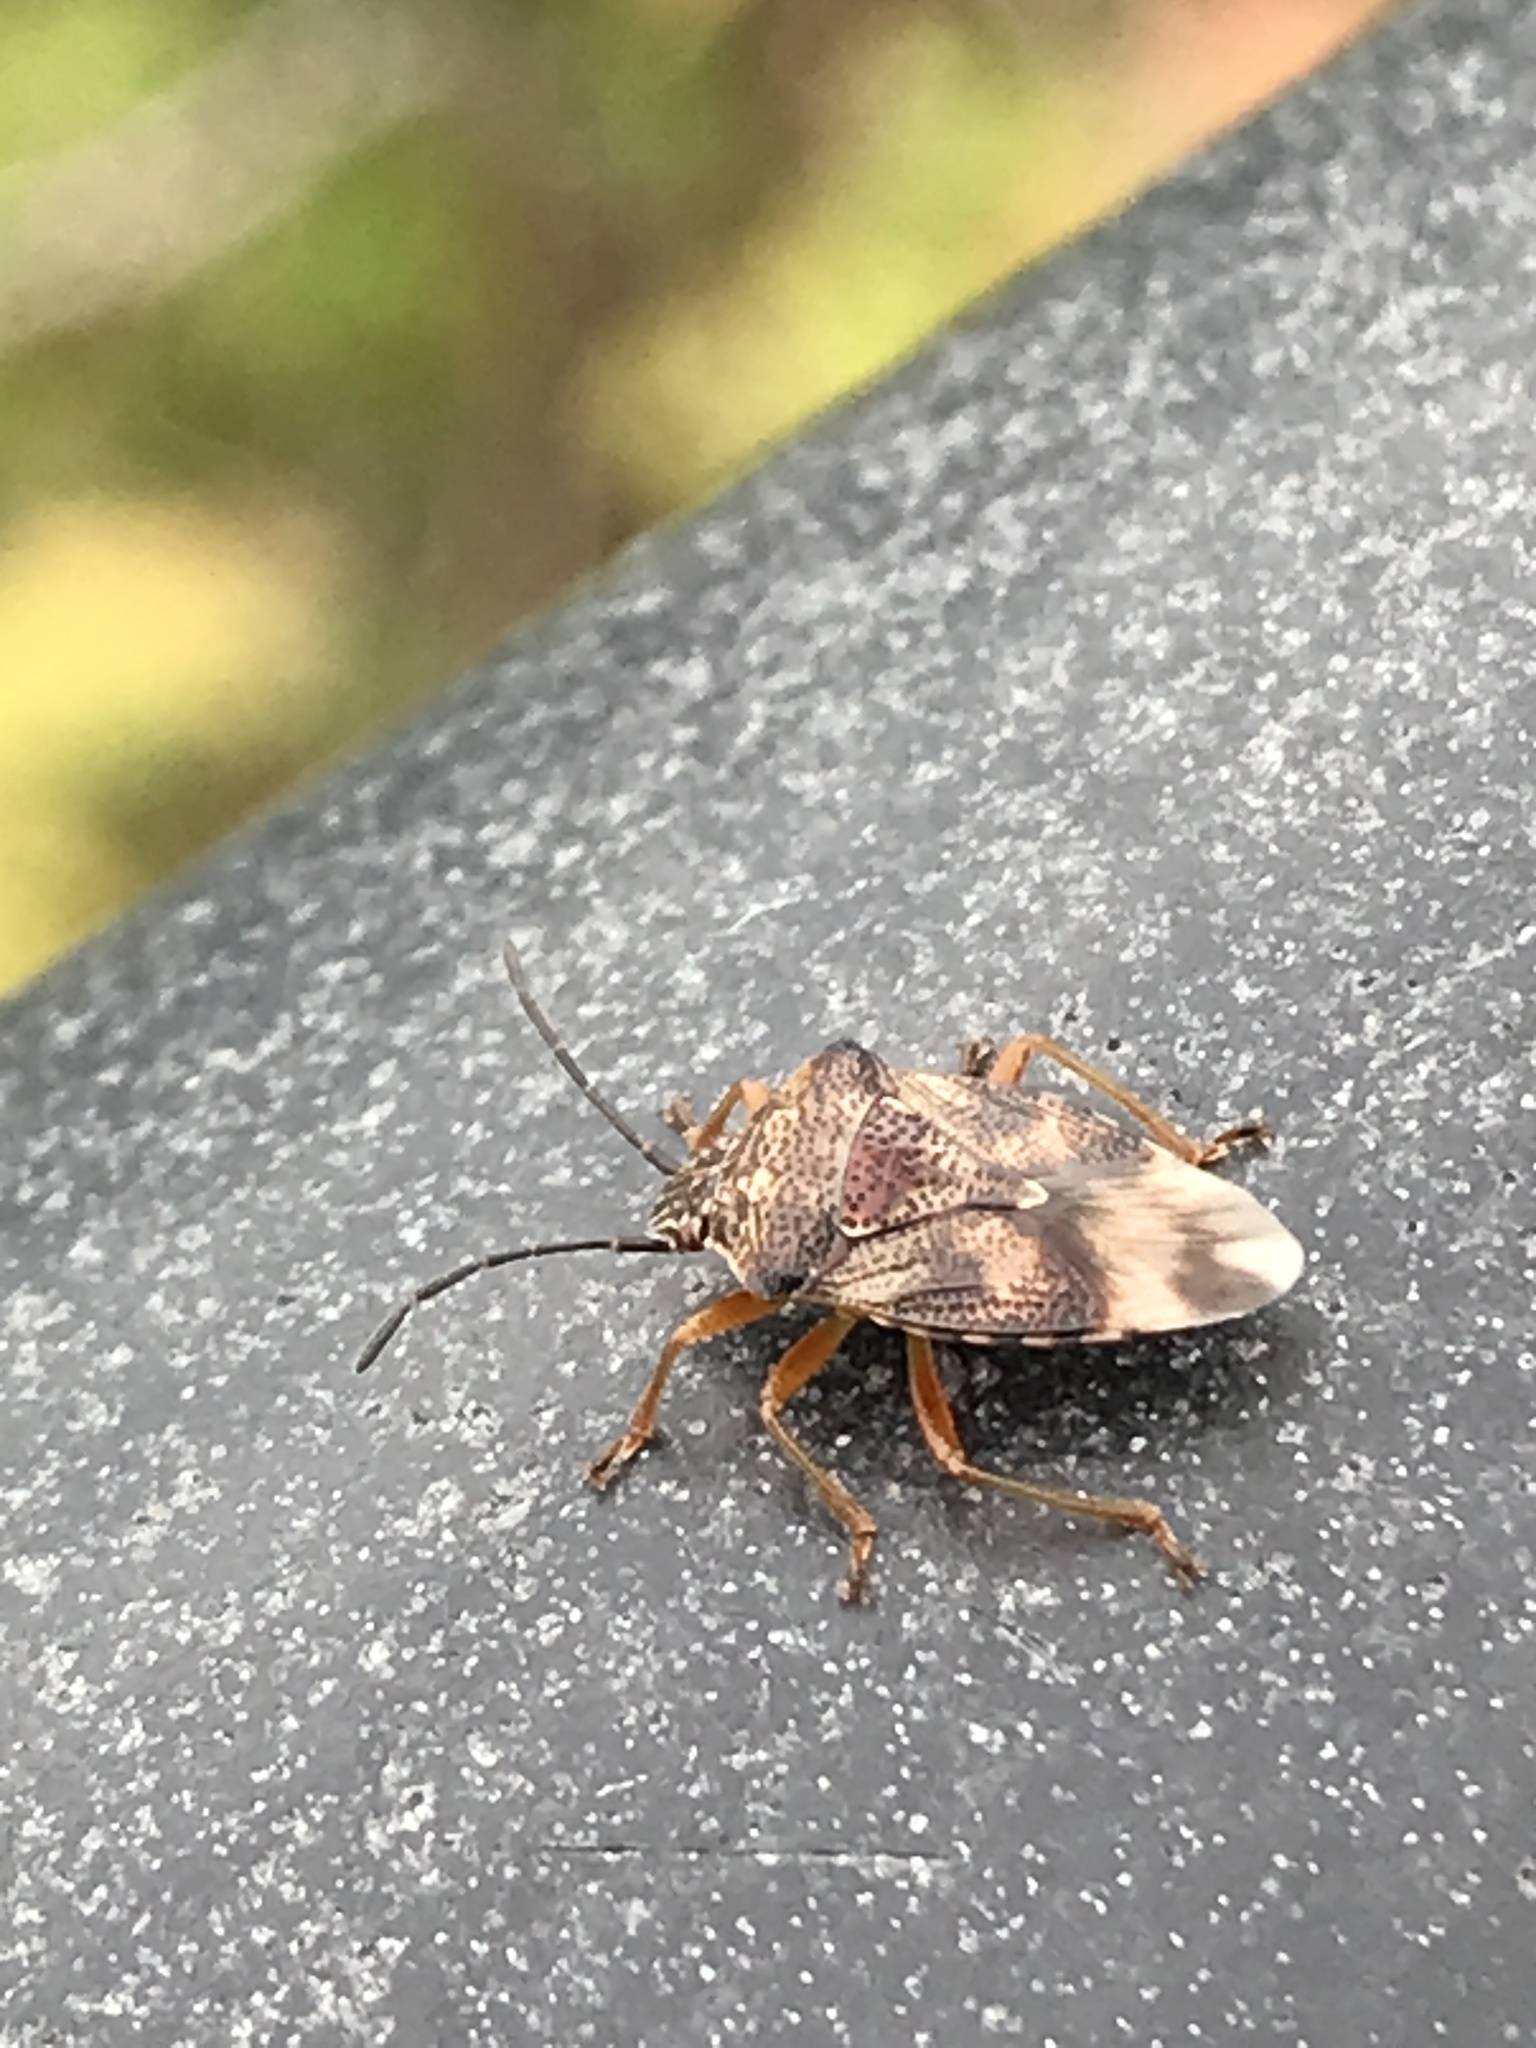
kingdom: Animalia
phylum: Arthropoda
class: Insecta
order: Hemiptera
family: Acanthosomatidae
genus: Elasmucha
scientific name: Elasmucha lateralis
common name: Shield bug
